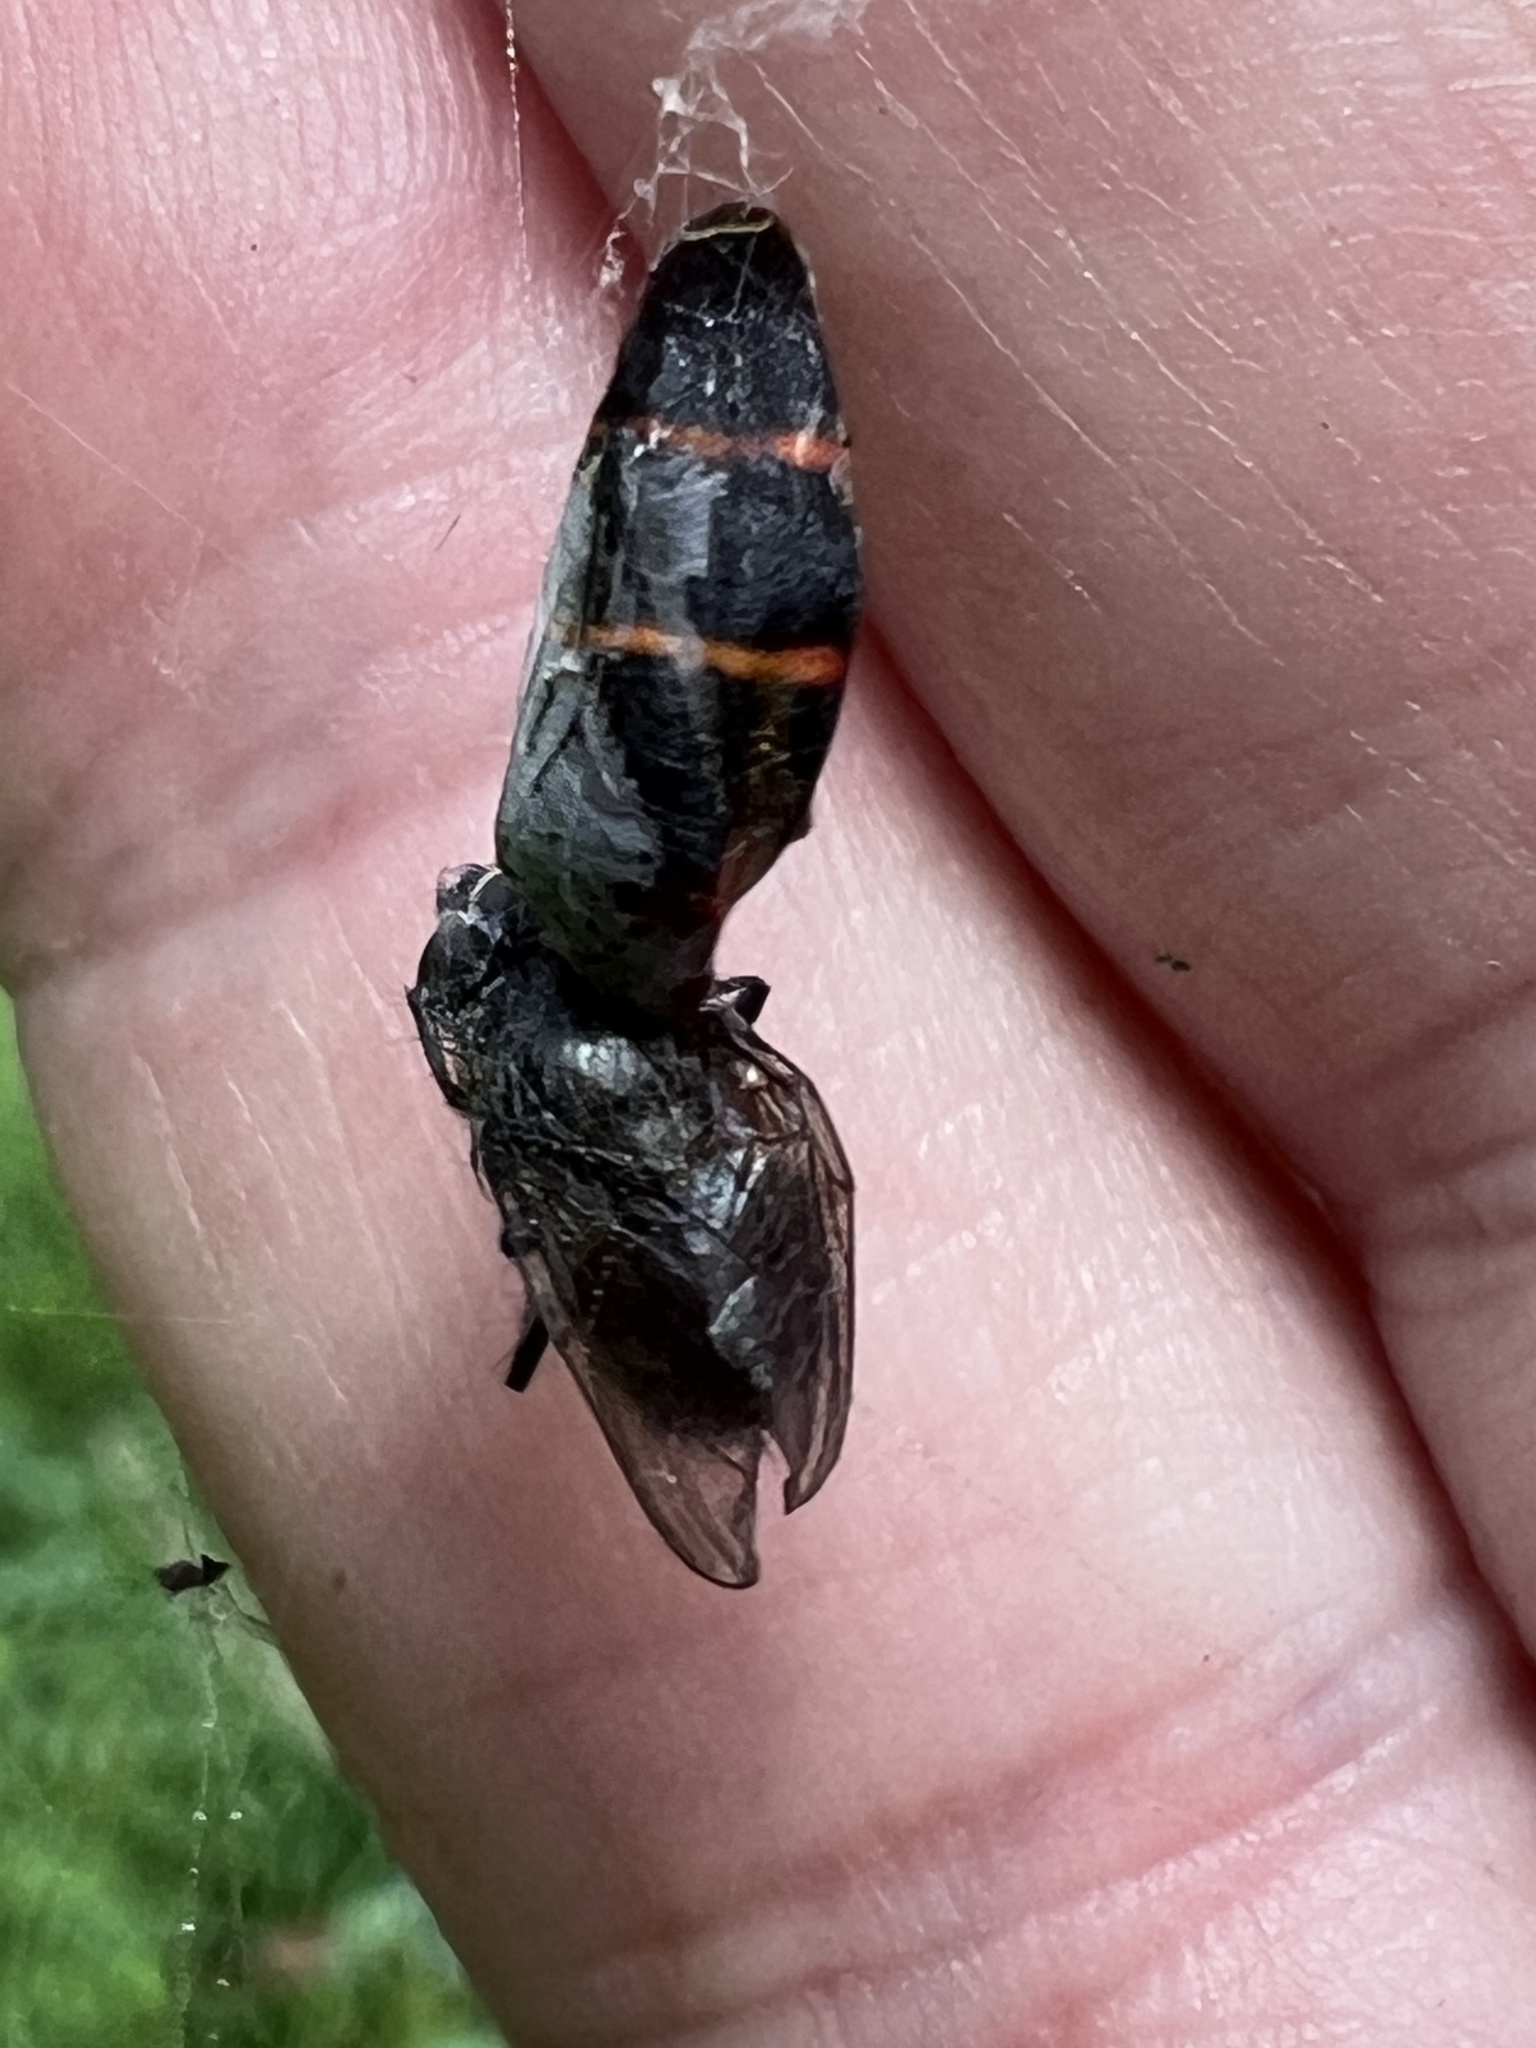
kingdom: Animalia
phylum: Arthropoda
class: Insecta
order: Hemiptera
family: Cercopidae
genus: Prosapia
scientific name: Prosapia bicincta
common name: Twolined spittlebug
